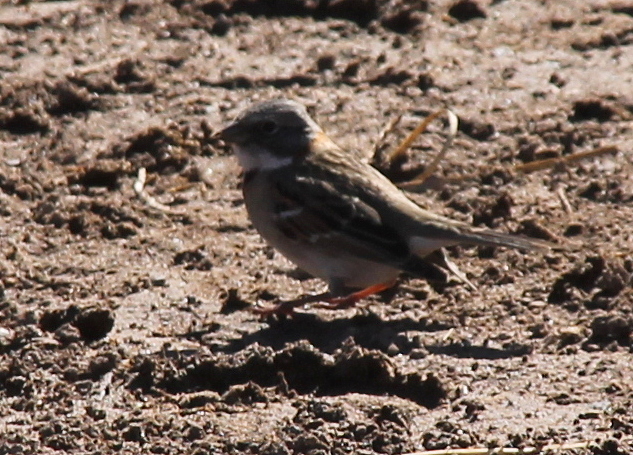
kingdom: Animalia
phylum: Chordata
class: Aves
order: Passeriformes
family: Passerellidae
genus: Zonotrichia
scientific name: Zonotrichia capensis
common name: Rufous-collared sparrow
